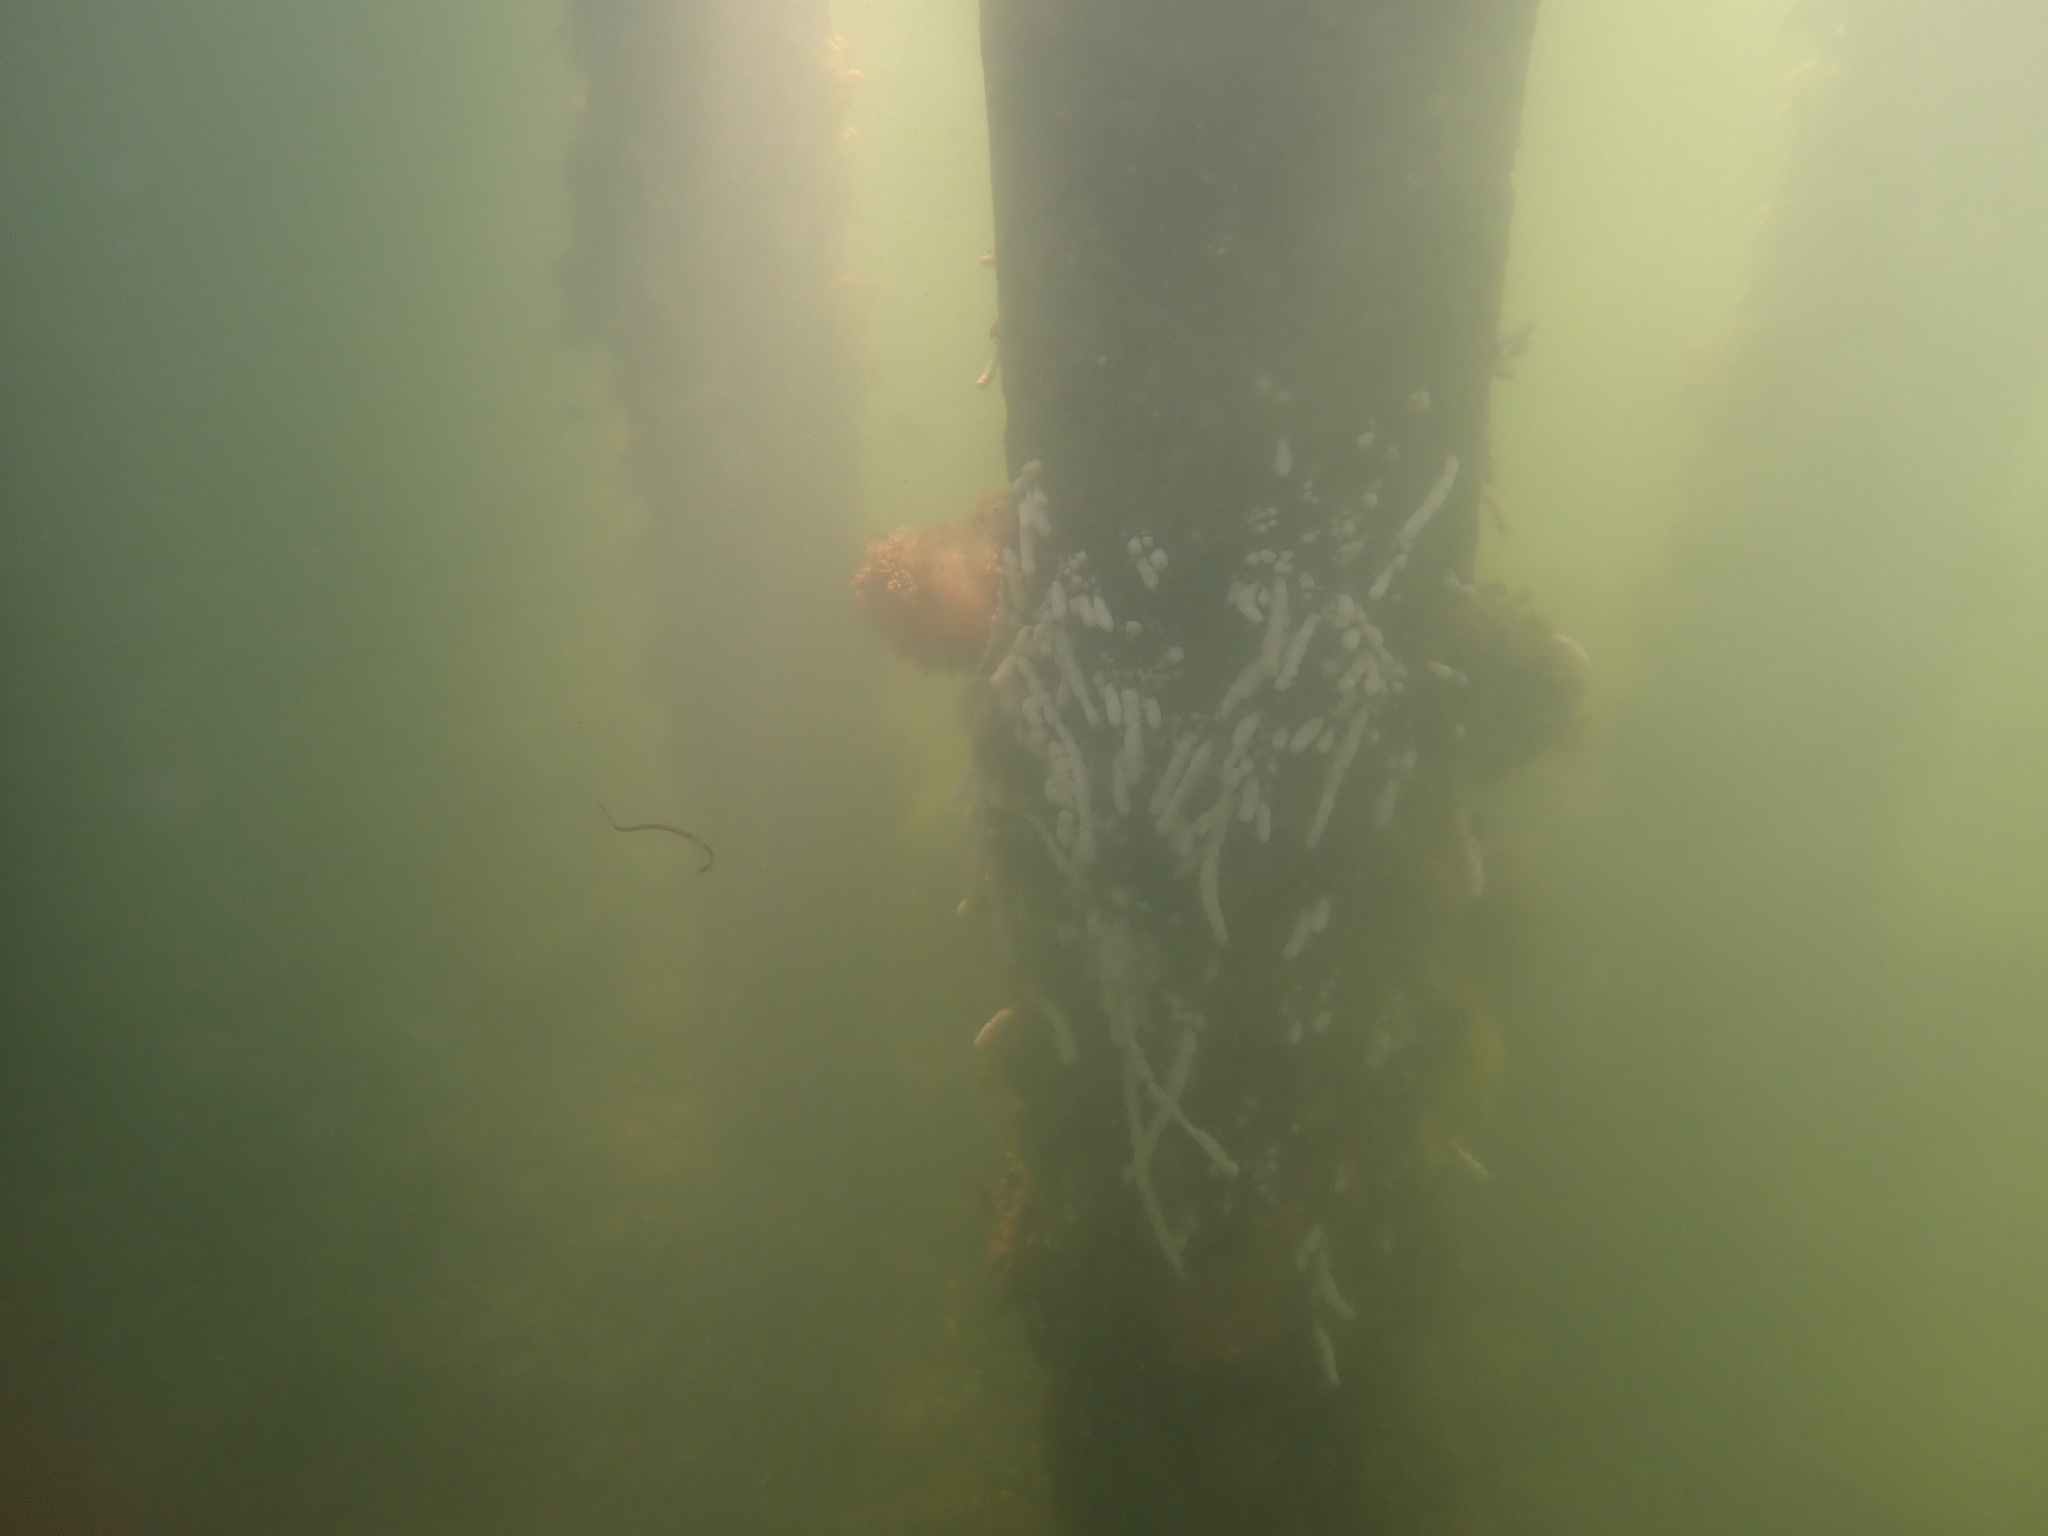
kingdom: Animalia
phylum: Chordata
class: Ascidiacea
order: Aplousobranchia
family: Polycitoridae
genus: Eudistoma
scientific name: Eudistoma elongatum
